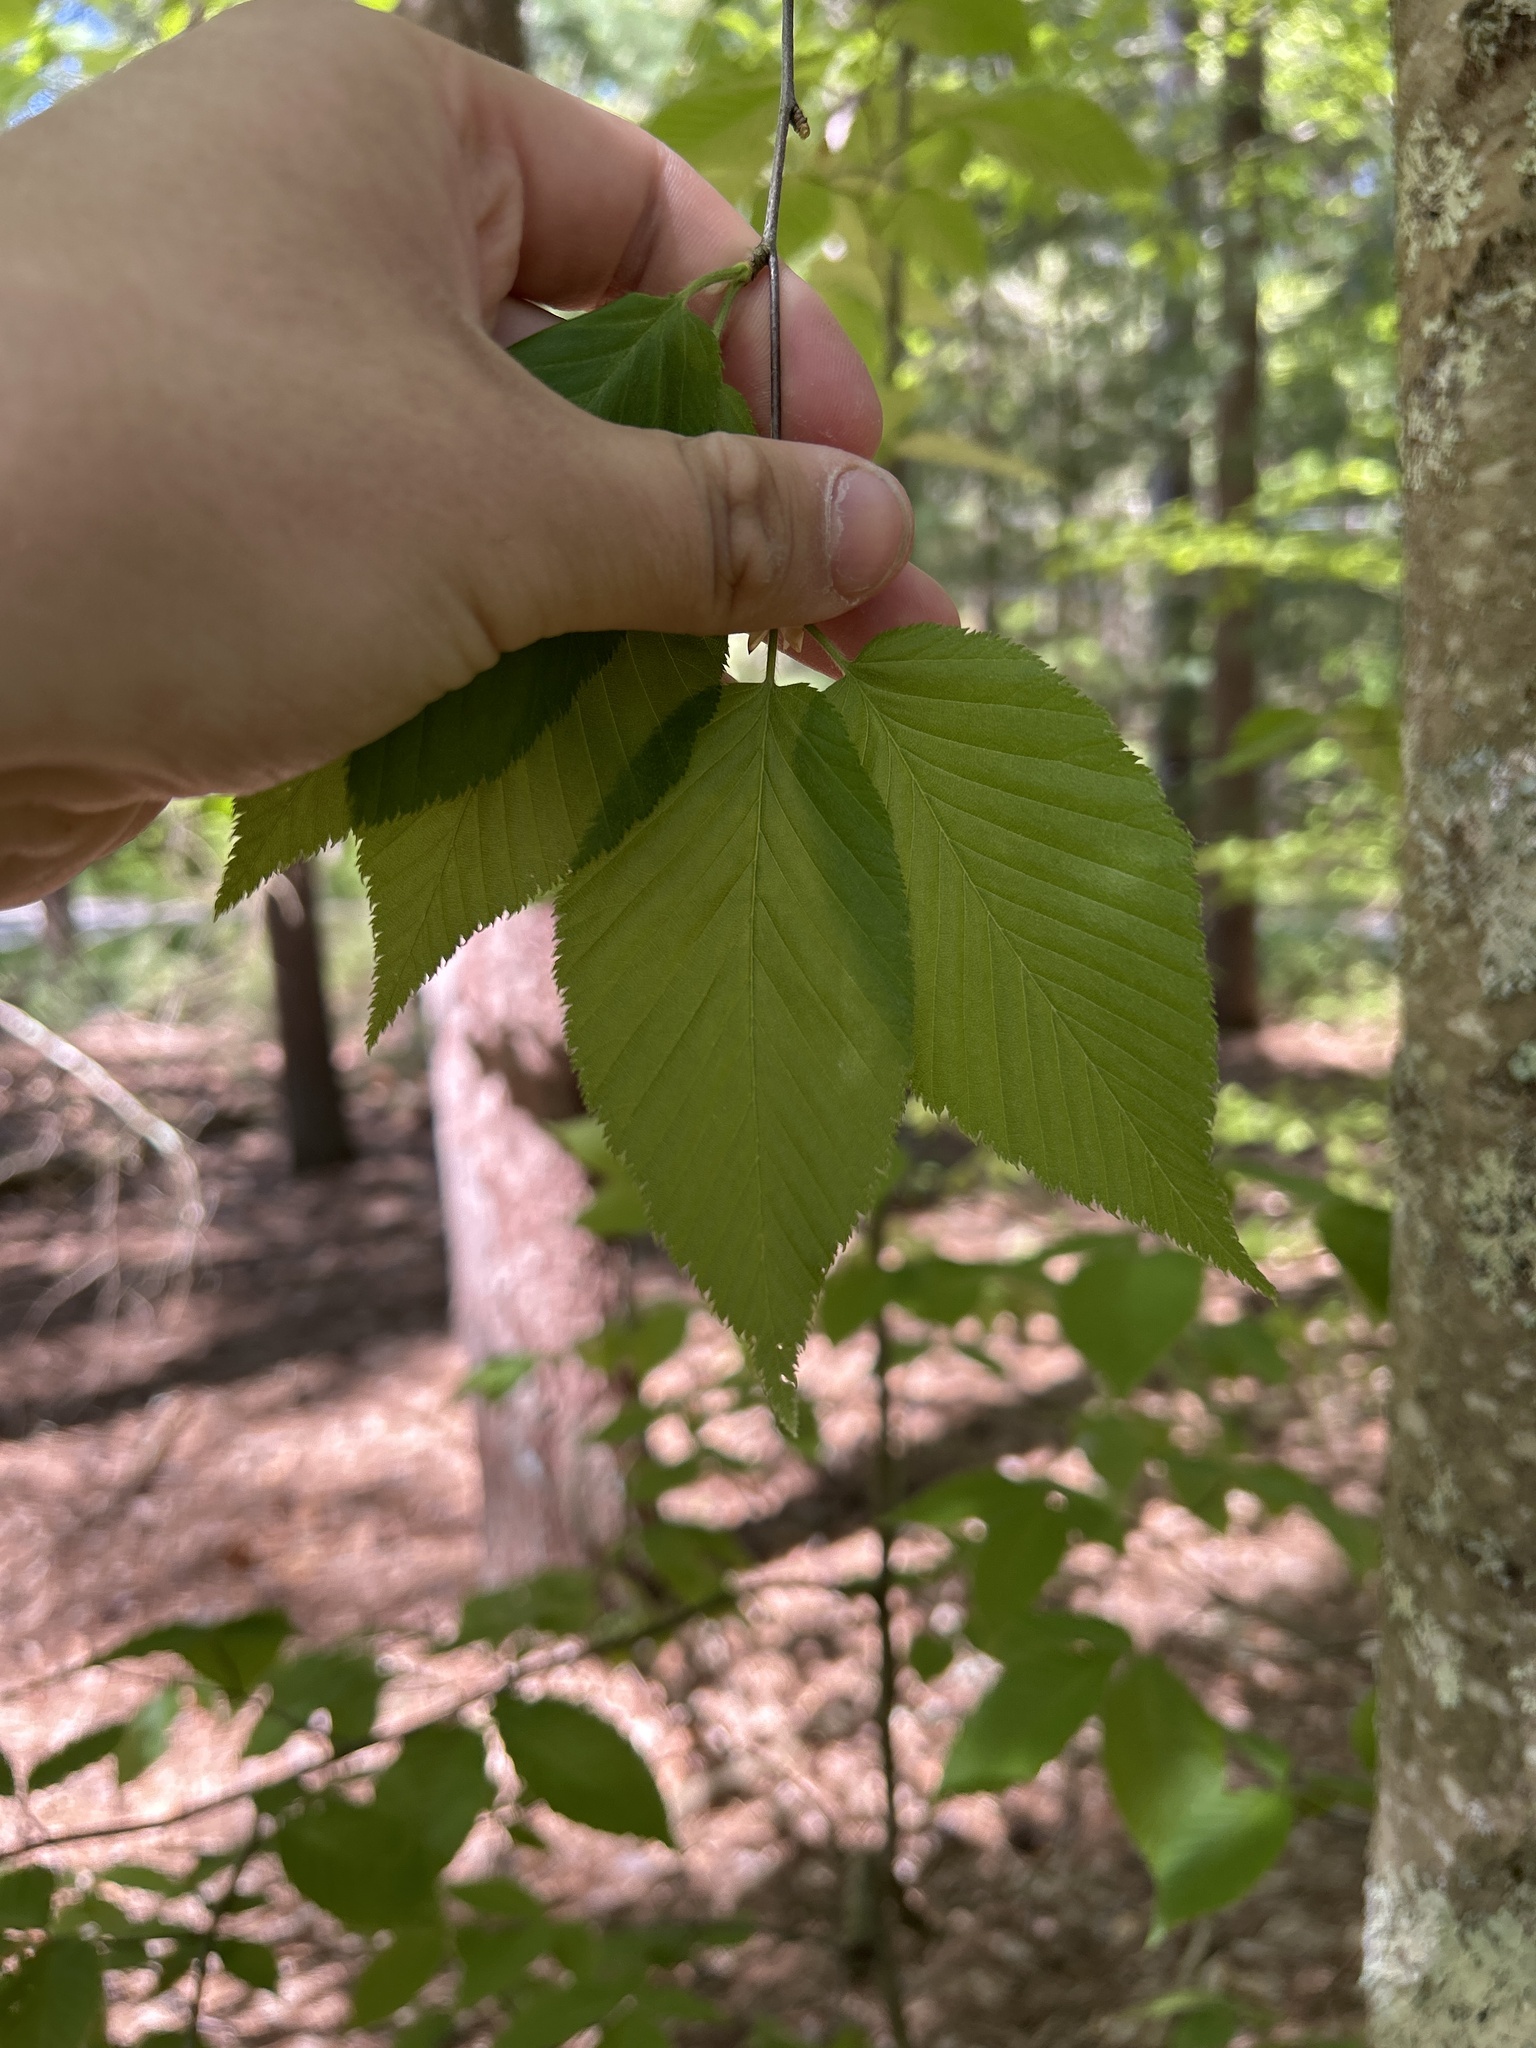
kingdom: Plantae
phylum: Tracheophyta
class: Magnoliopsida
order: Fagales
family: Betulaceae
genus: Betula
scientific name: Betula lenta
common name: Black birch
